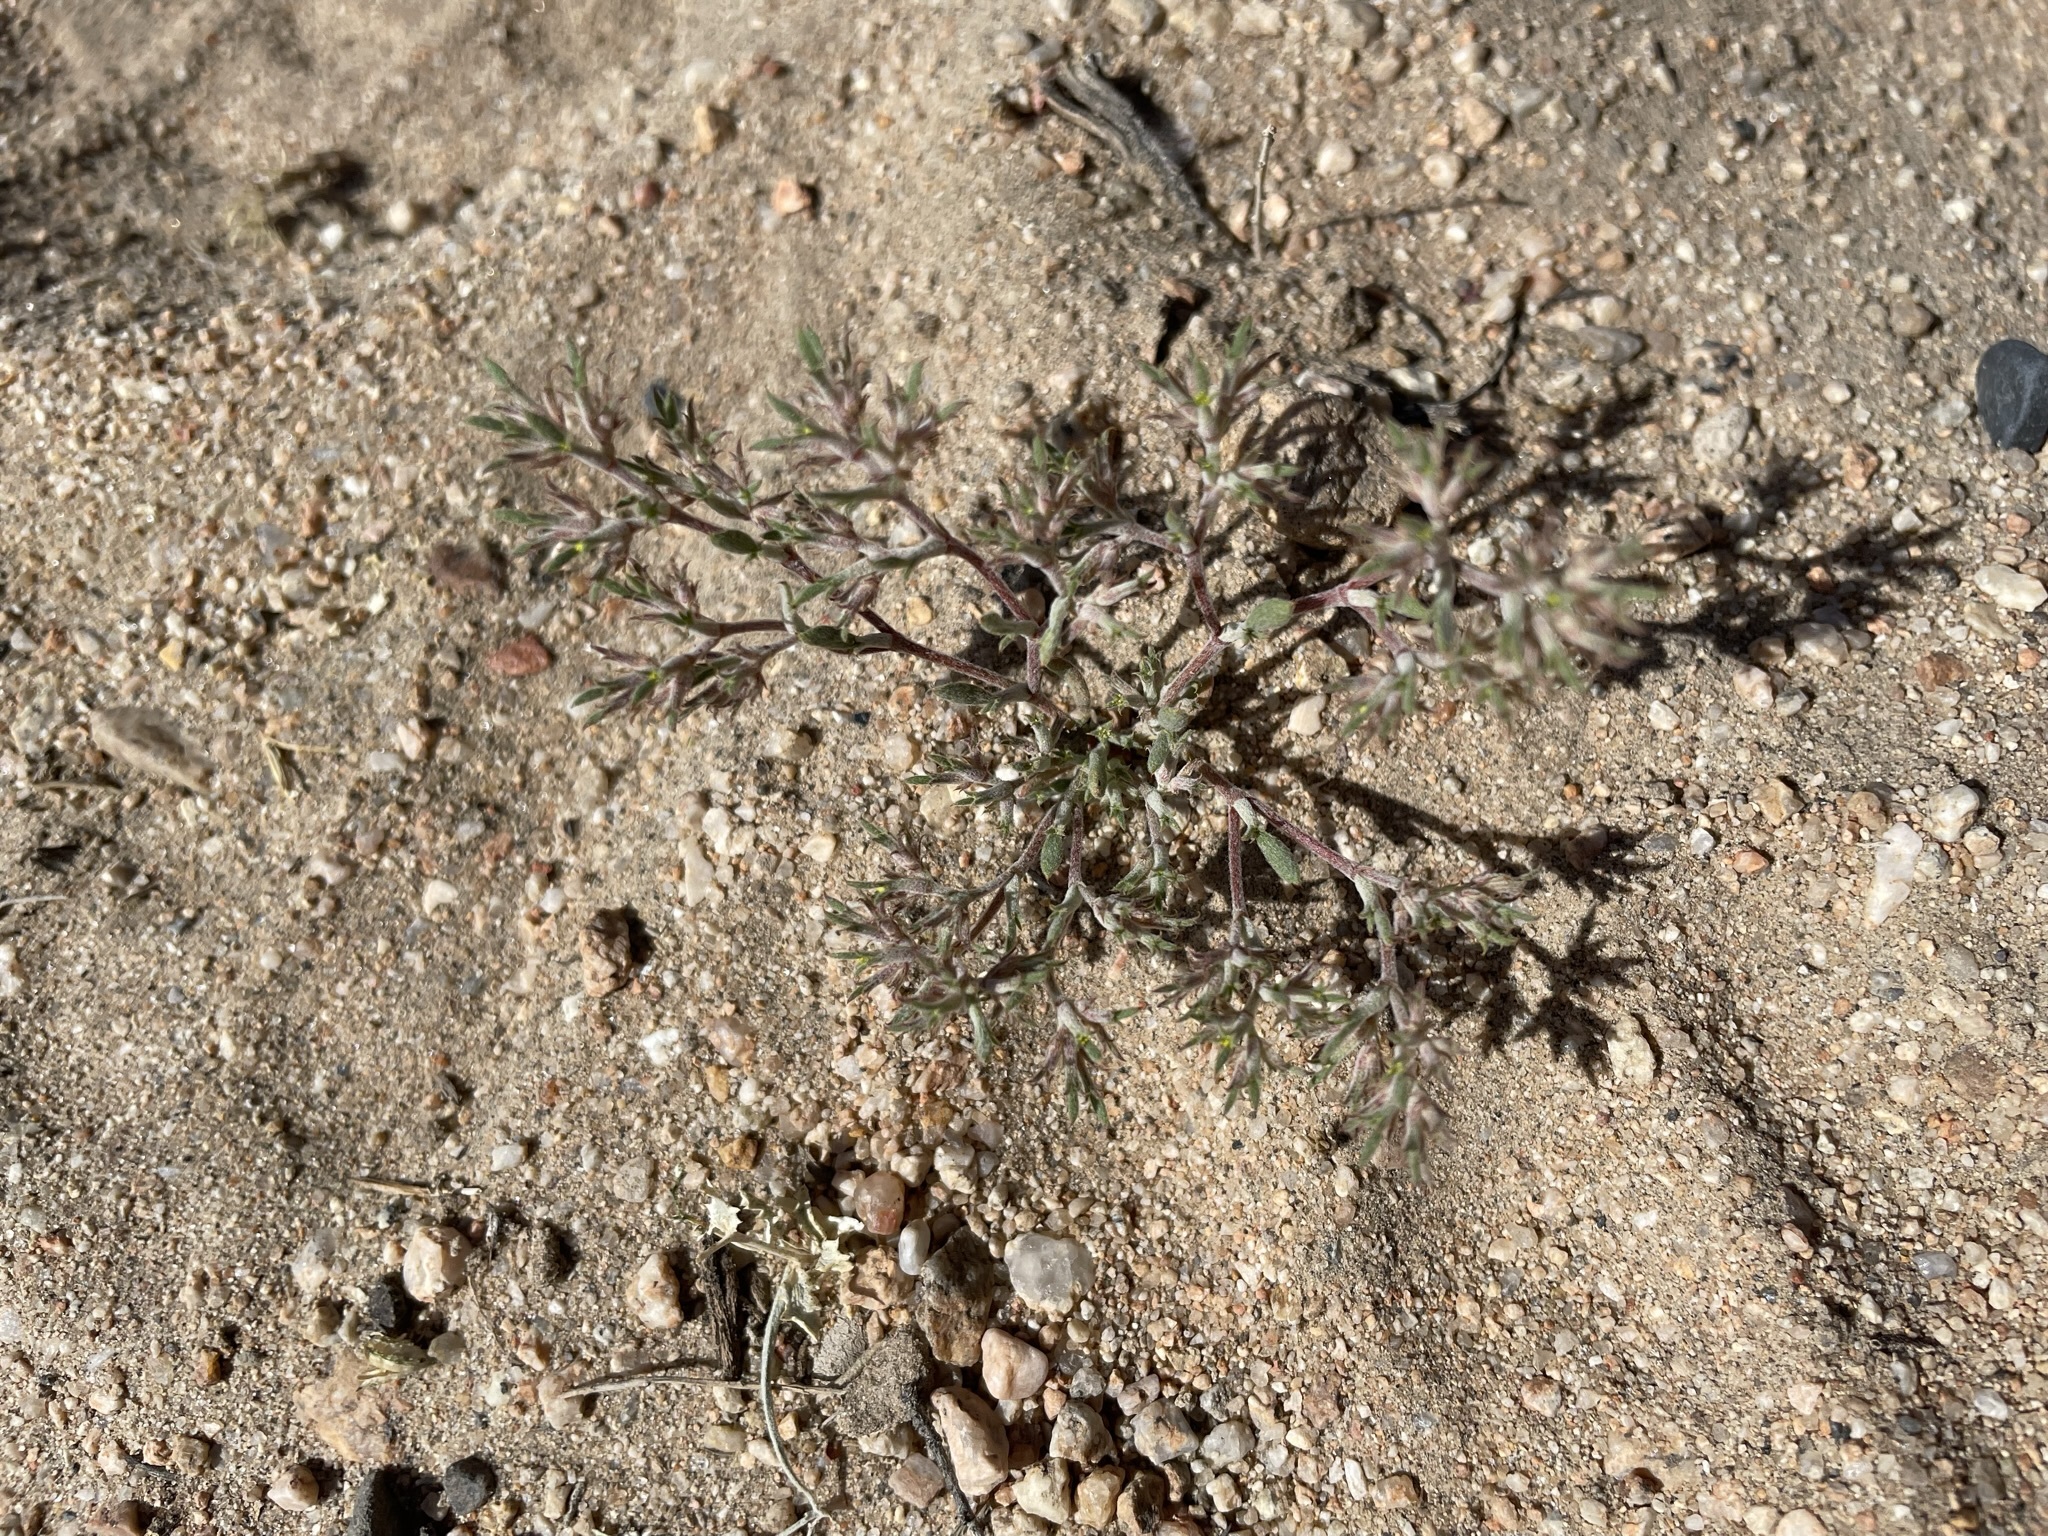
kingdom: Plantae
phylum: Tracheophyta
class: Magnoliopsida
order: Caryophyllales
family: Polygonaceae
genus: Chorizanthe
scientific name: Chorizanthe watsonii
